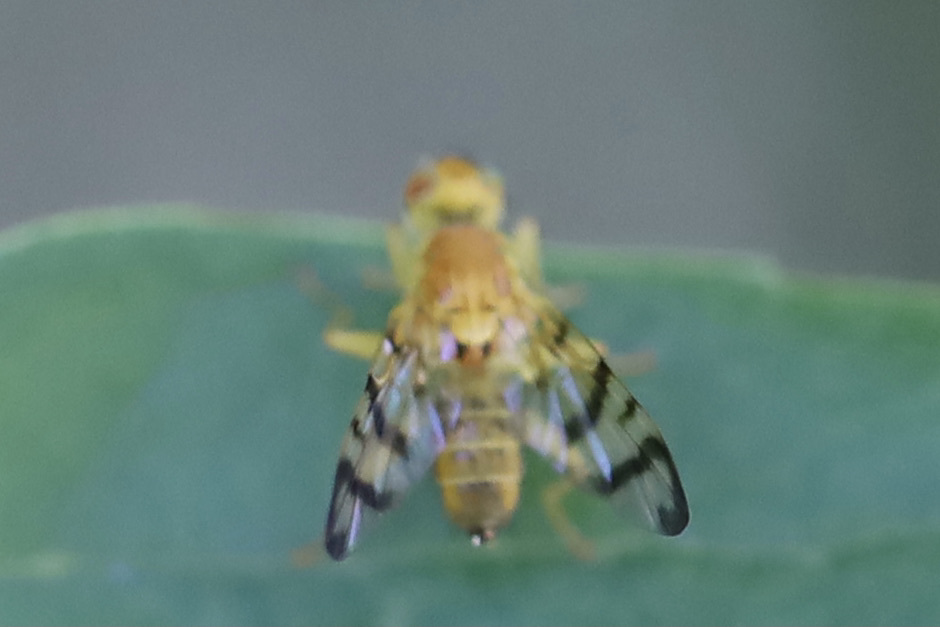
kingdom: Animalia
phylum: Arthropoda
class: Insecta
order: Diptera
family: Tephritidae
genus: Rhagoletis
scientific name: Rhagoletis basiola
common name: Rose hip fly
